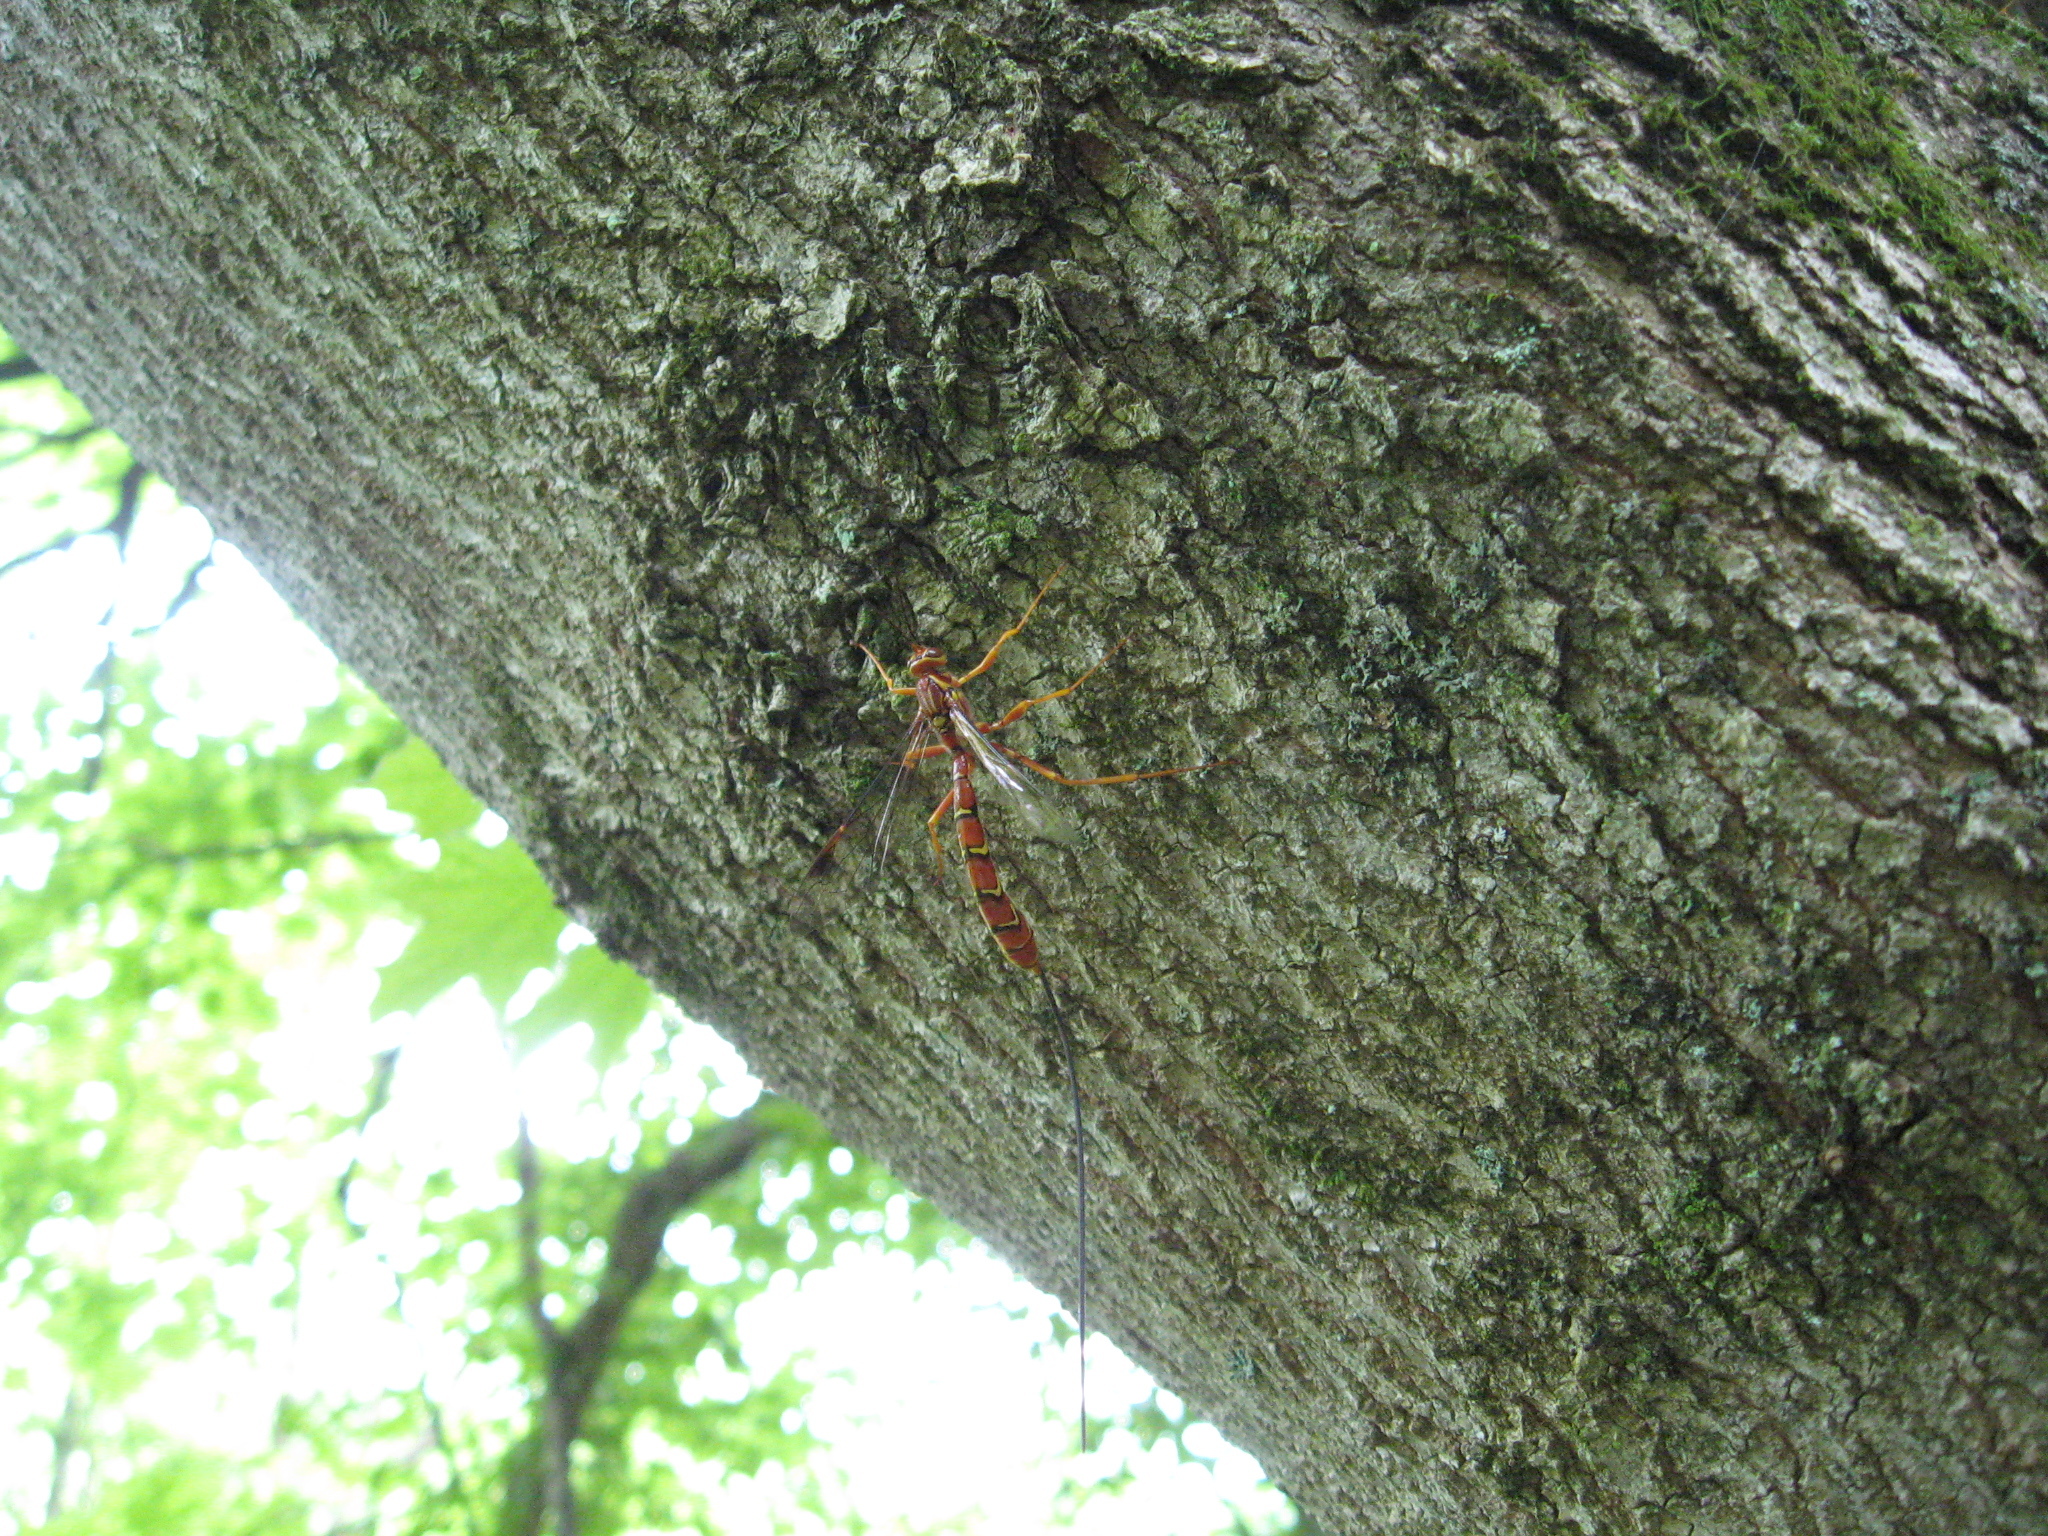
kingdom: Animalia
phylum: Arthropoda
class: Insecta
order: Hymenoptera
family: Ichneumonidae
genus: Megarhyssa
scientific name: Megarhyssa greenei
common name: Greene's giant ichneumonid wasp
